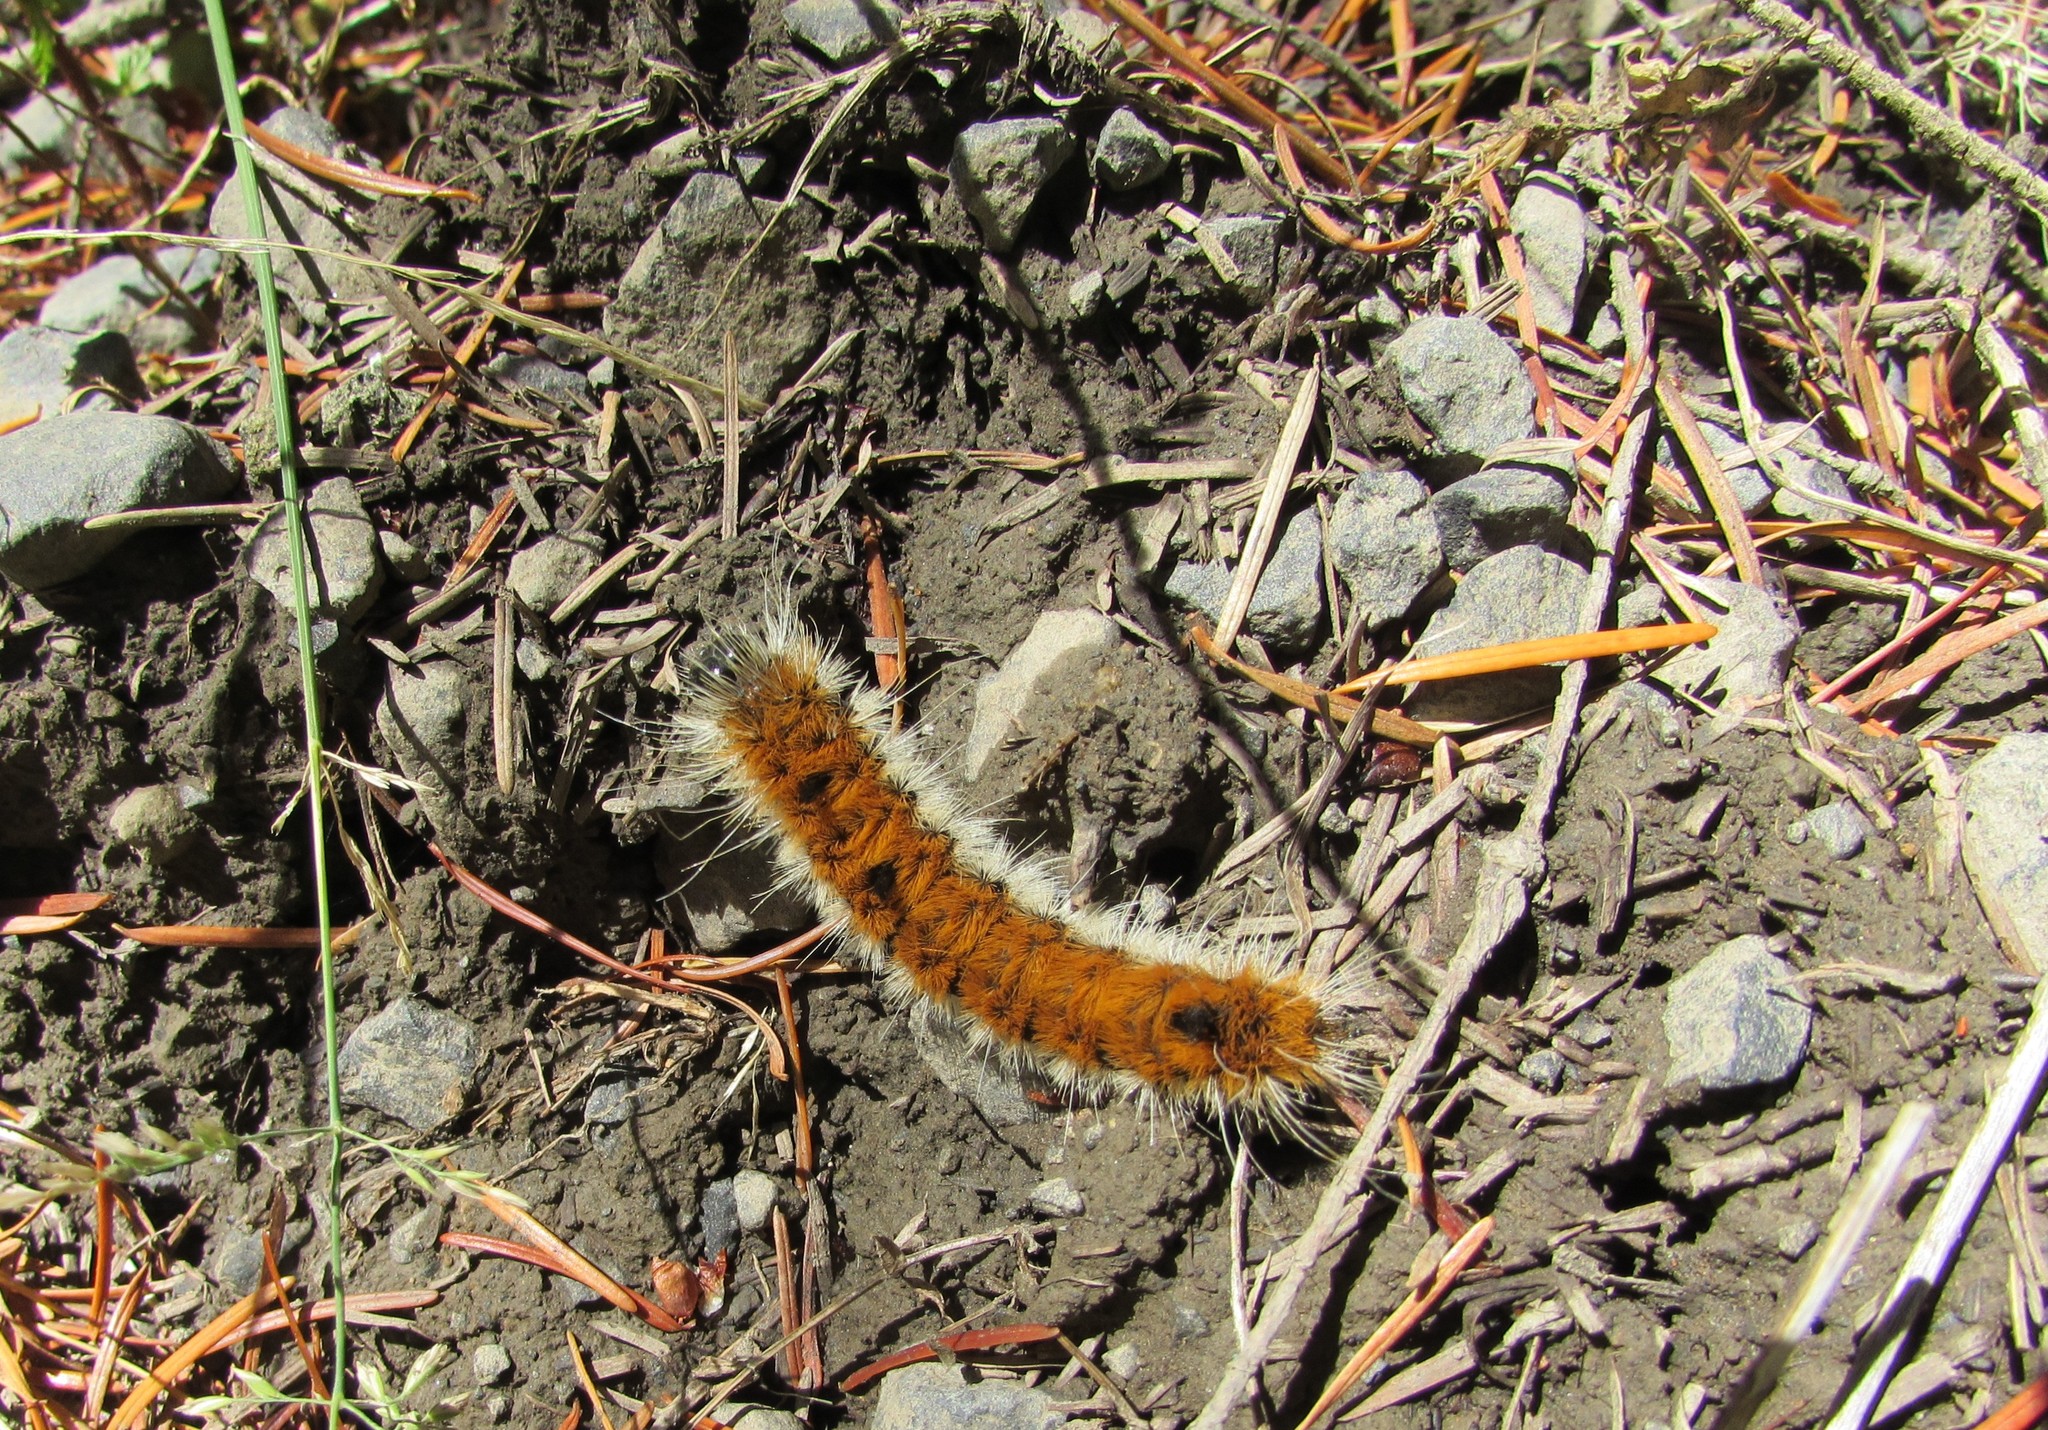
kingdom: Animalia
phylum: Arthropoda
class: Insecta
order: Lepidoptera
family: Noctuidae
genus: Acronicta
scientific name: Acronicta insita
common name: Large gray dagger
